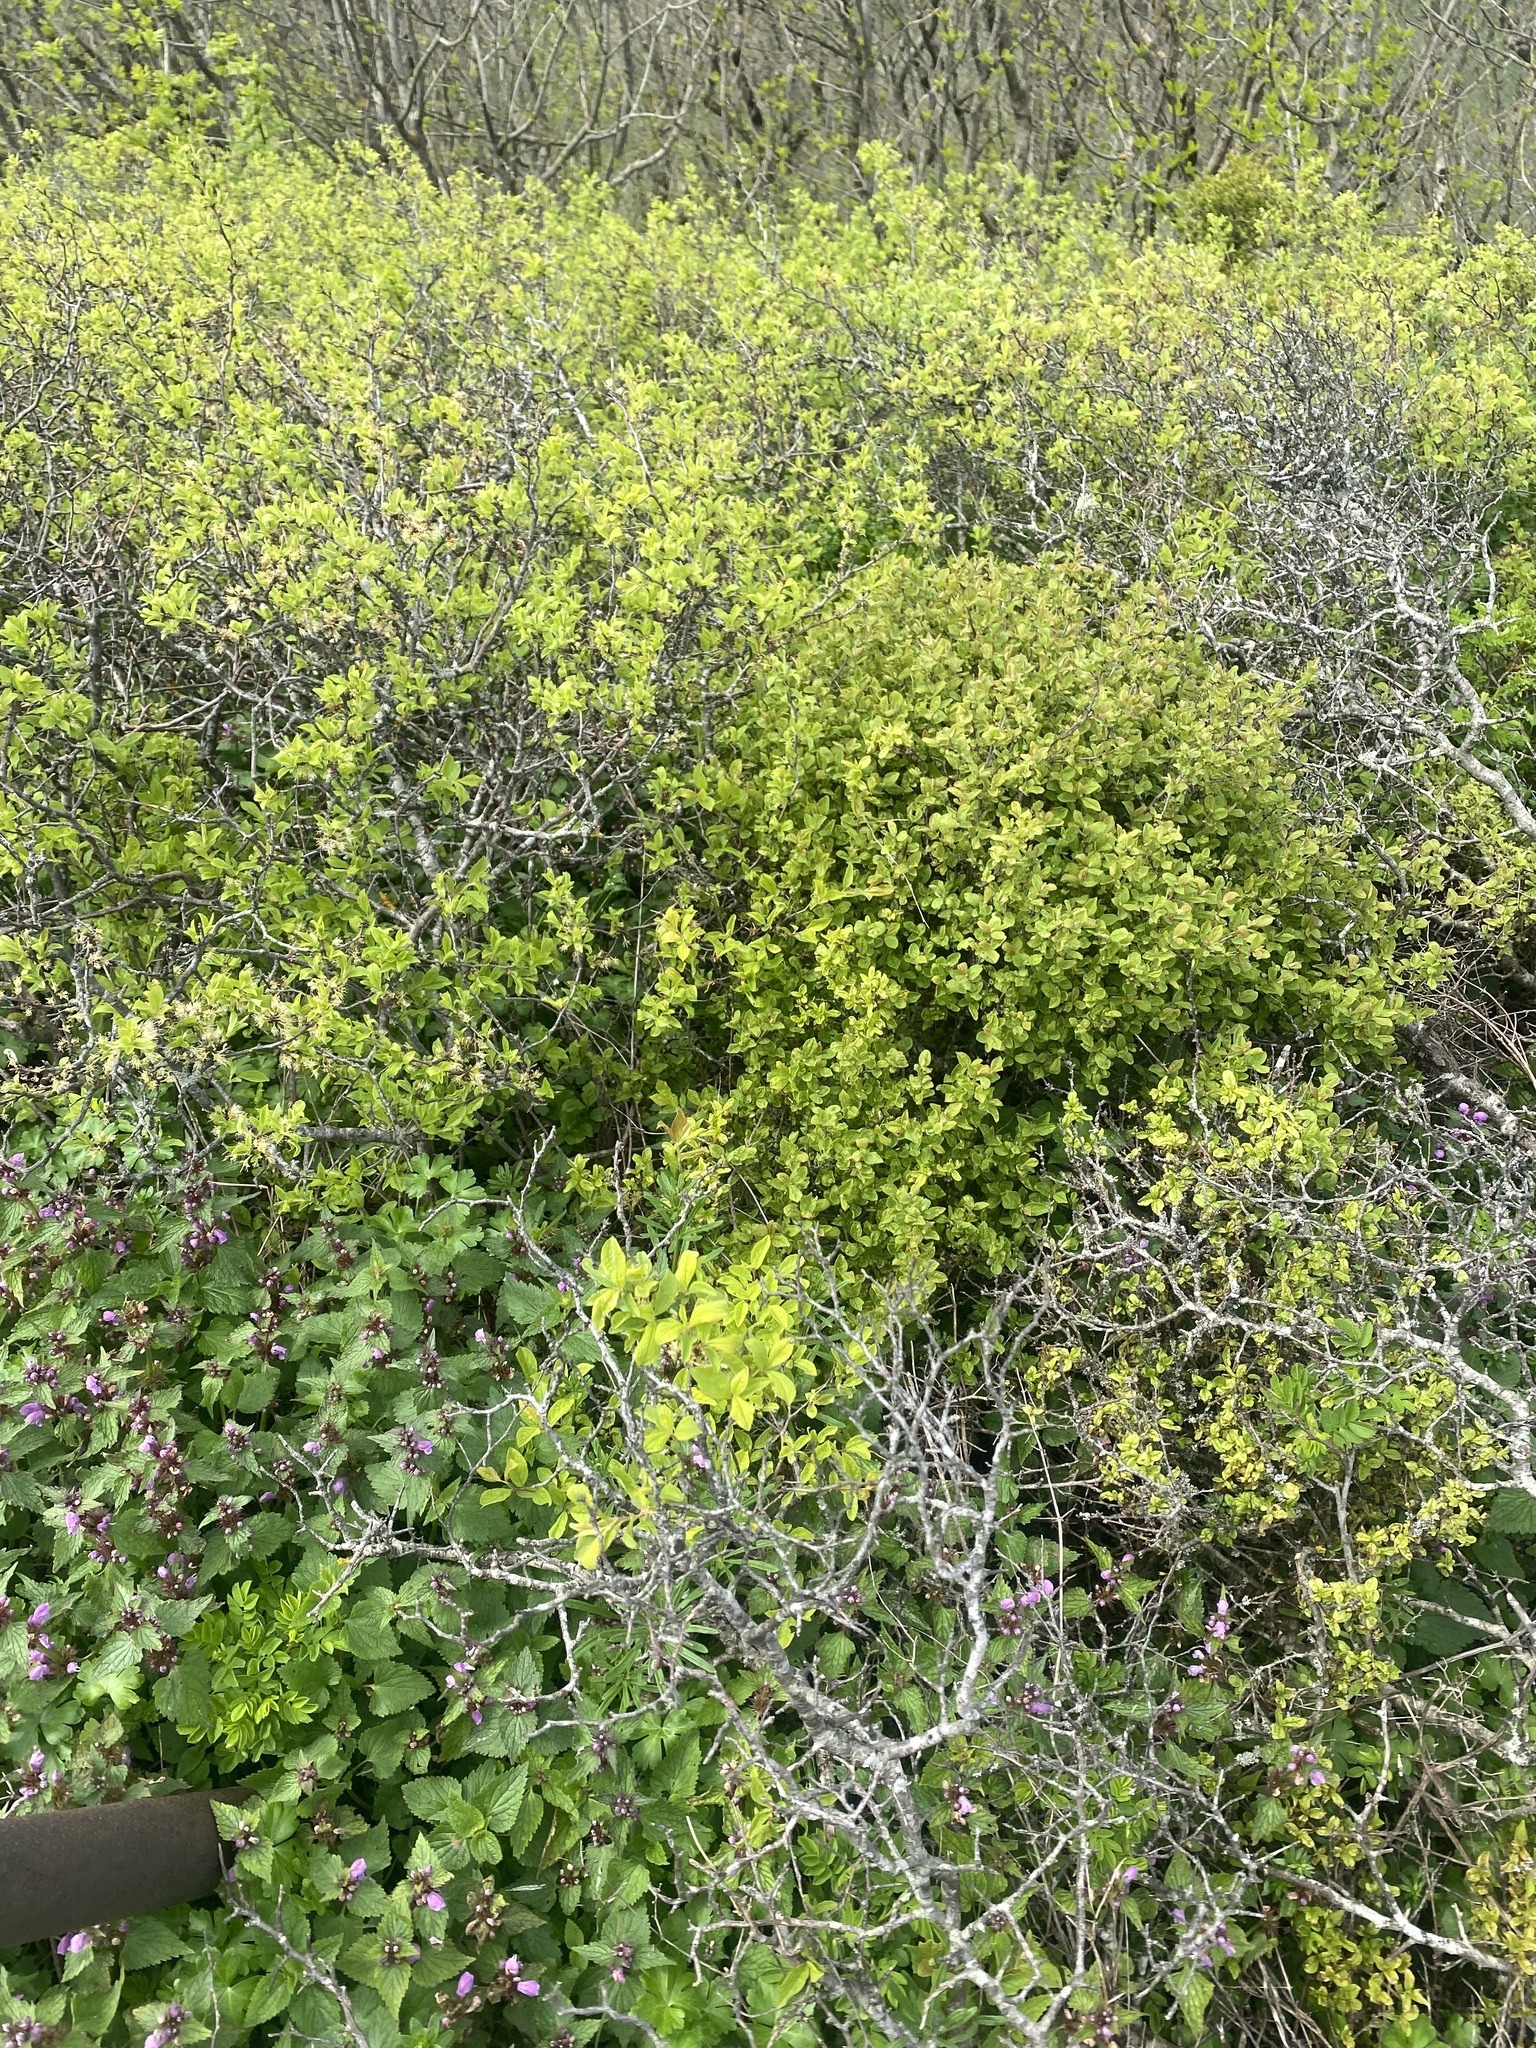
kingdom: Plantae
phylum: Tracheophyta
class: Magnoliopsida
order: Rosales
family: Rosaceae
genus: Prunus
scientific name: Prunus spinosa
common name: Blackthorn
